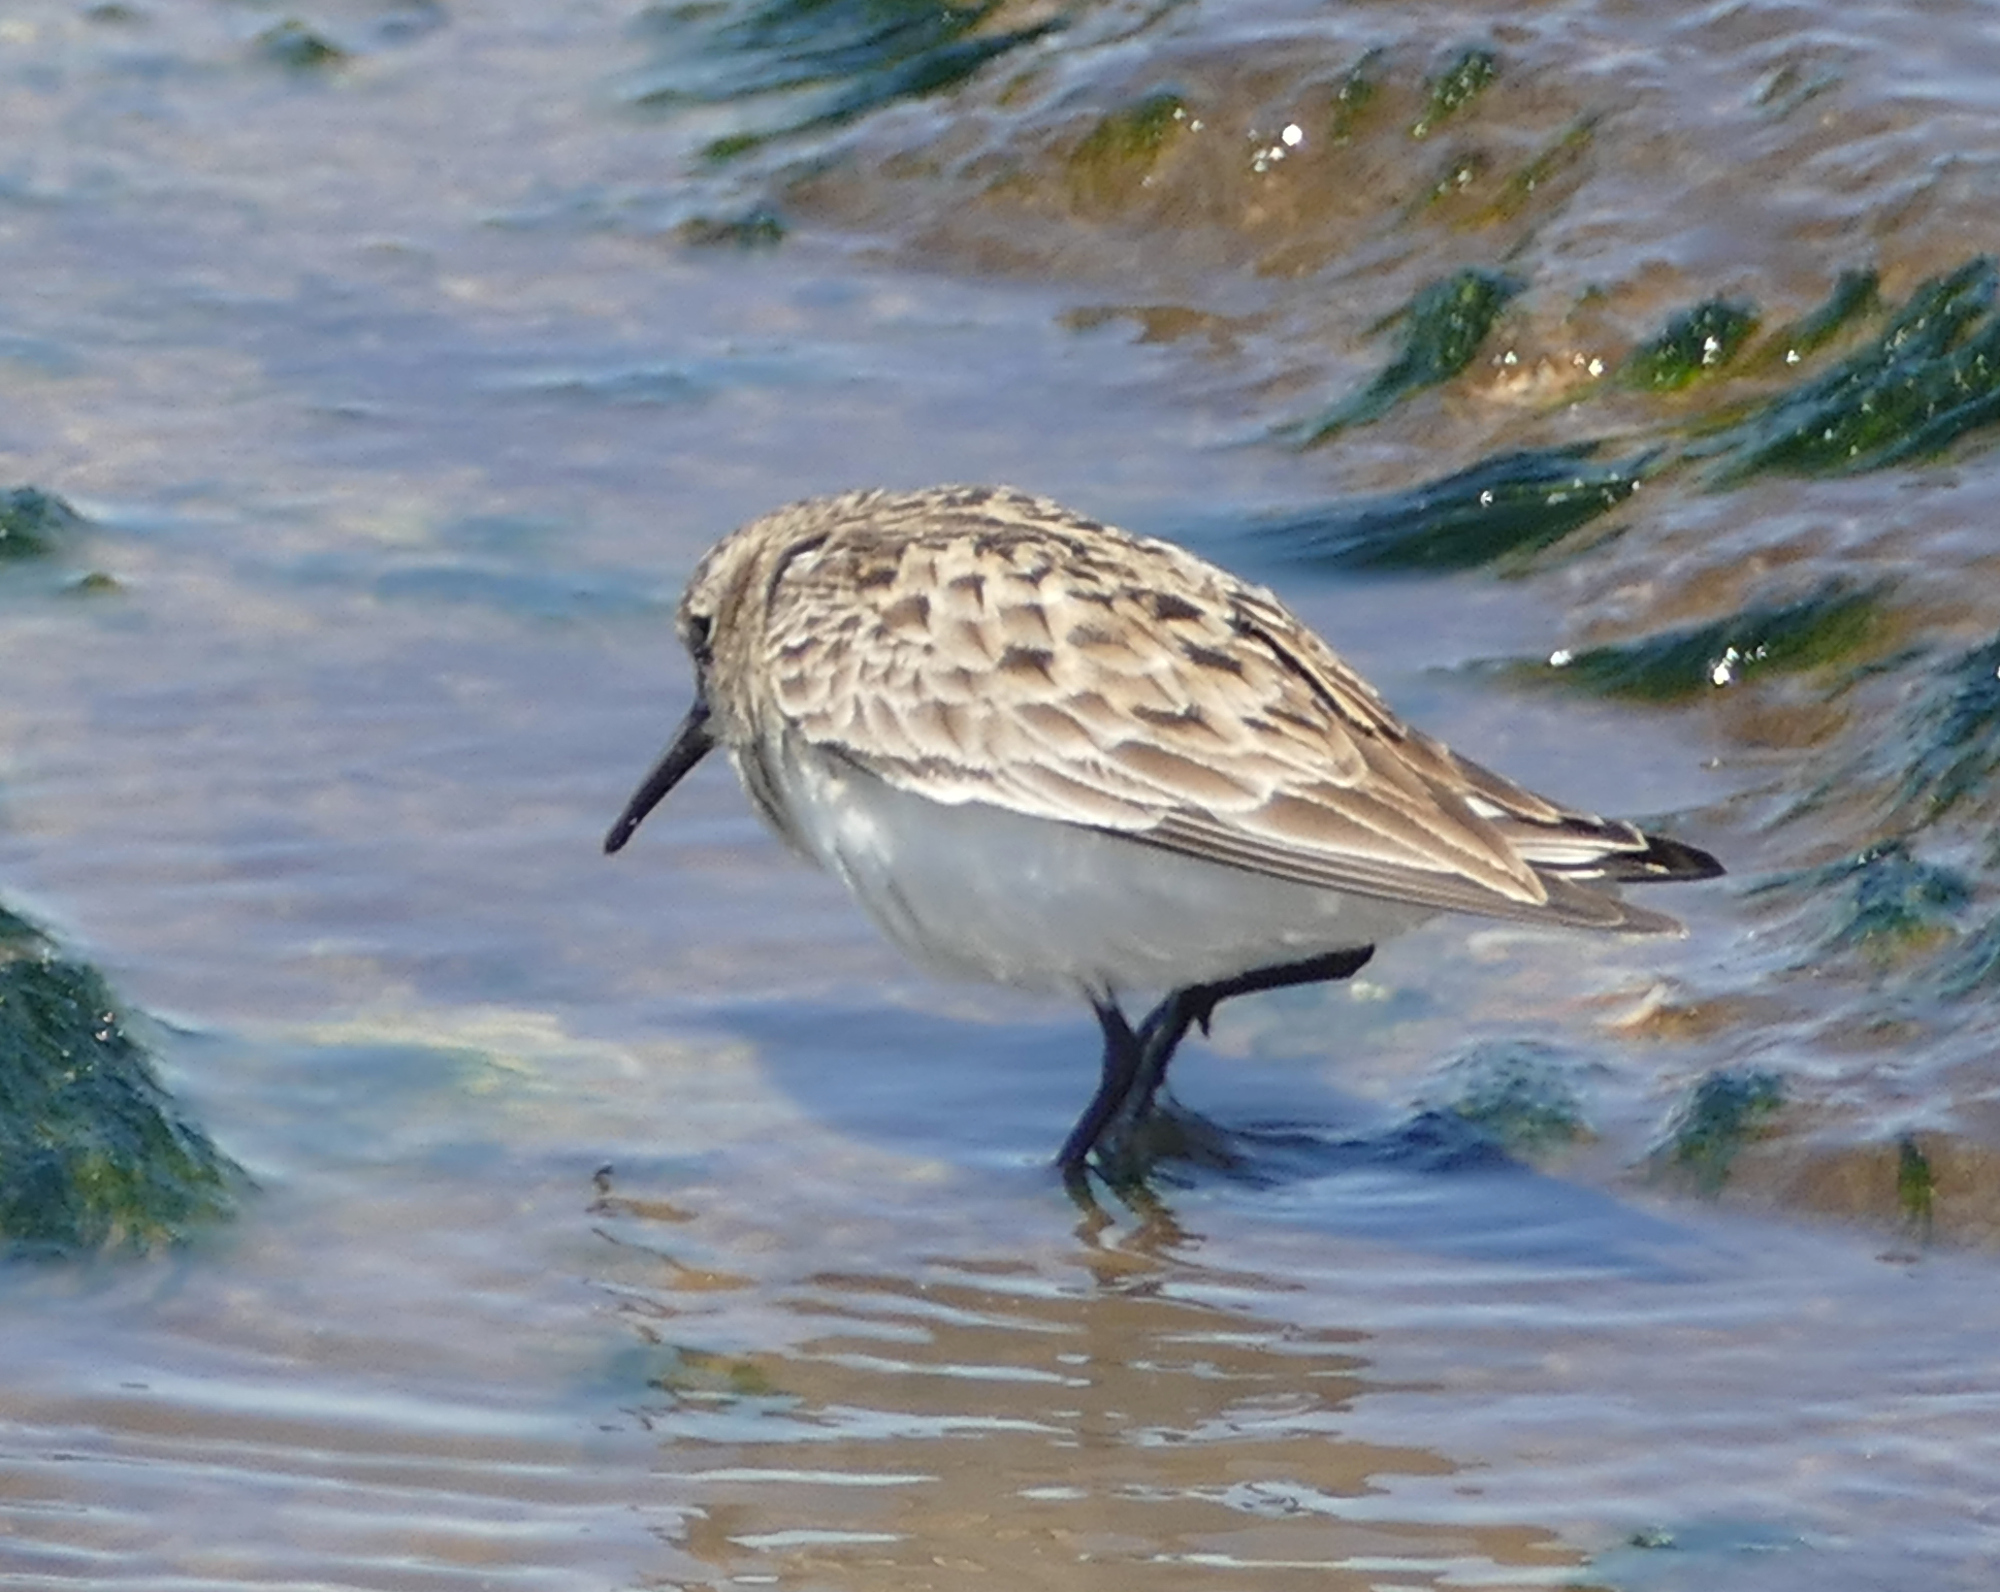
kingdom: Animalia
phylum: Chordata
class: Aves
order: Charadriiformes
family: Scolopacidae
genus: Calidris
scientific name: Calidris bairdii
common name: Baird's sandpiper
